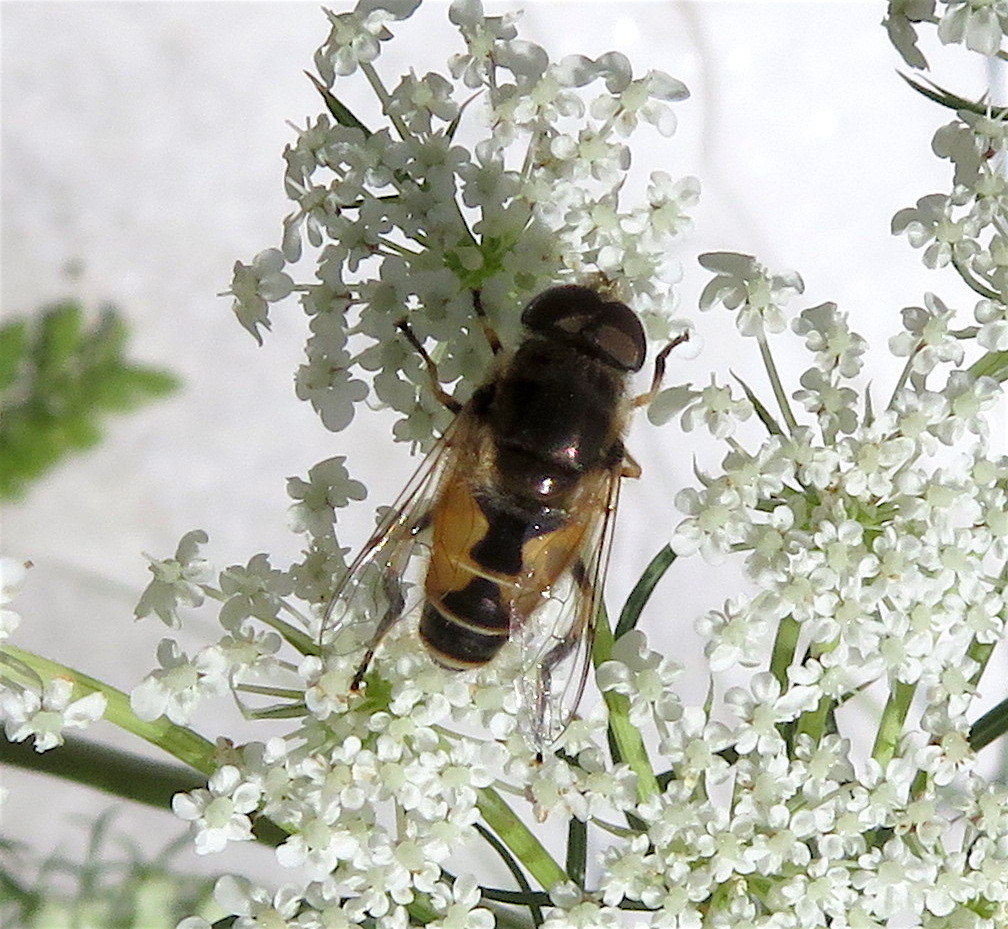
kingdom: Animalia
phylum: Arthropoda
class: Insecta
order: Diptera
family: Syrphidae
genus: Eristalis
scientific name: Eristalis arbustorum
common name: Hover fly
